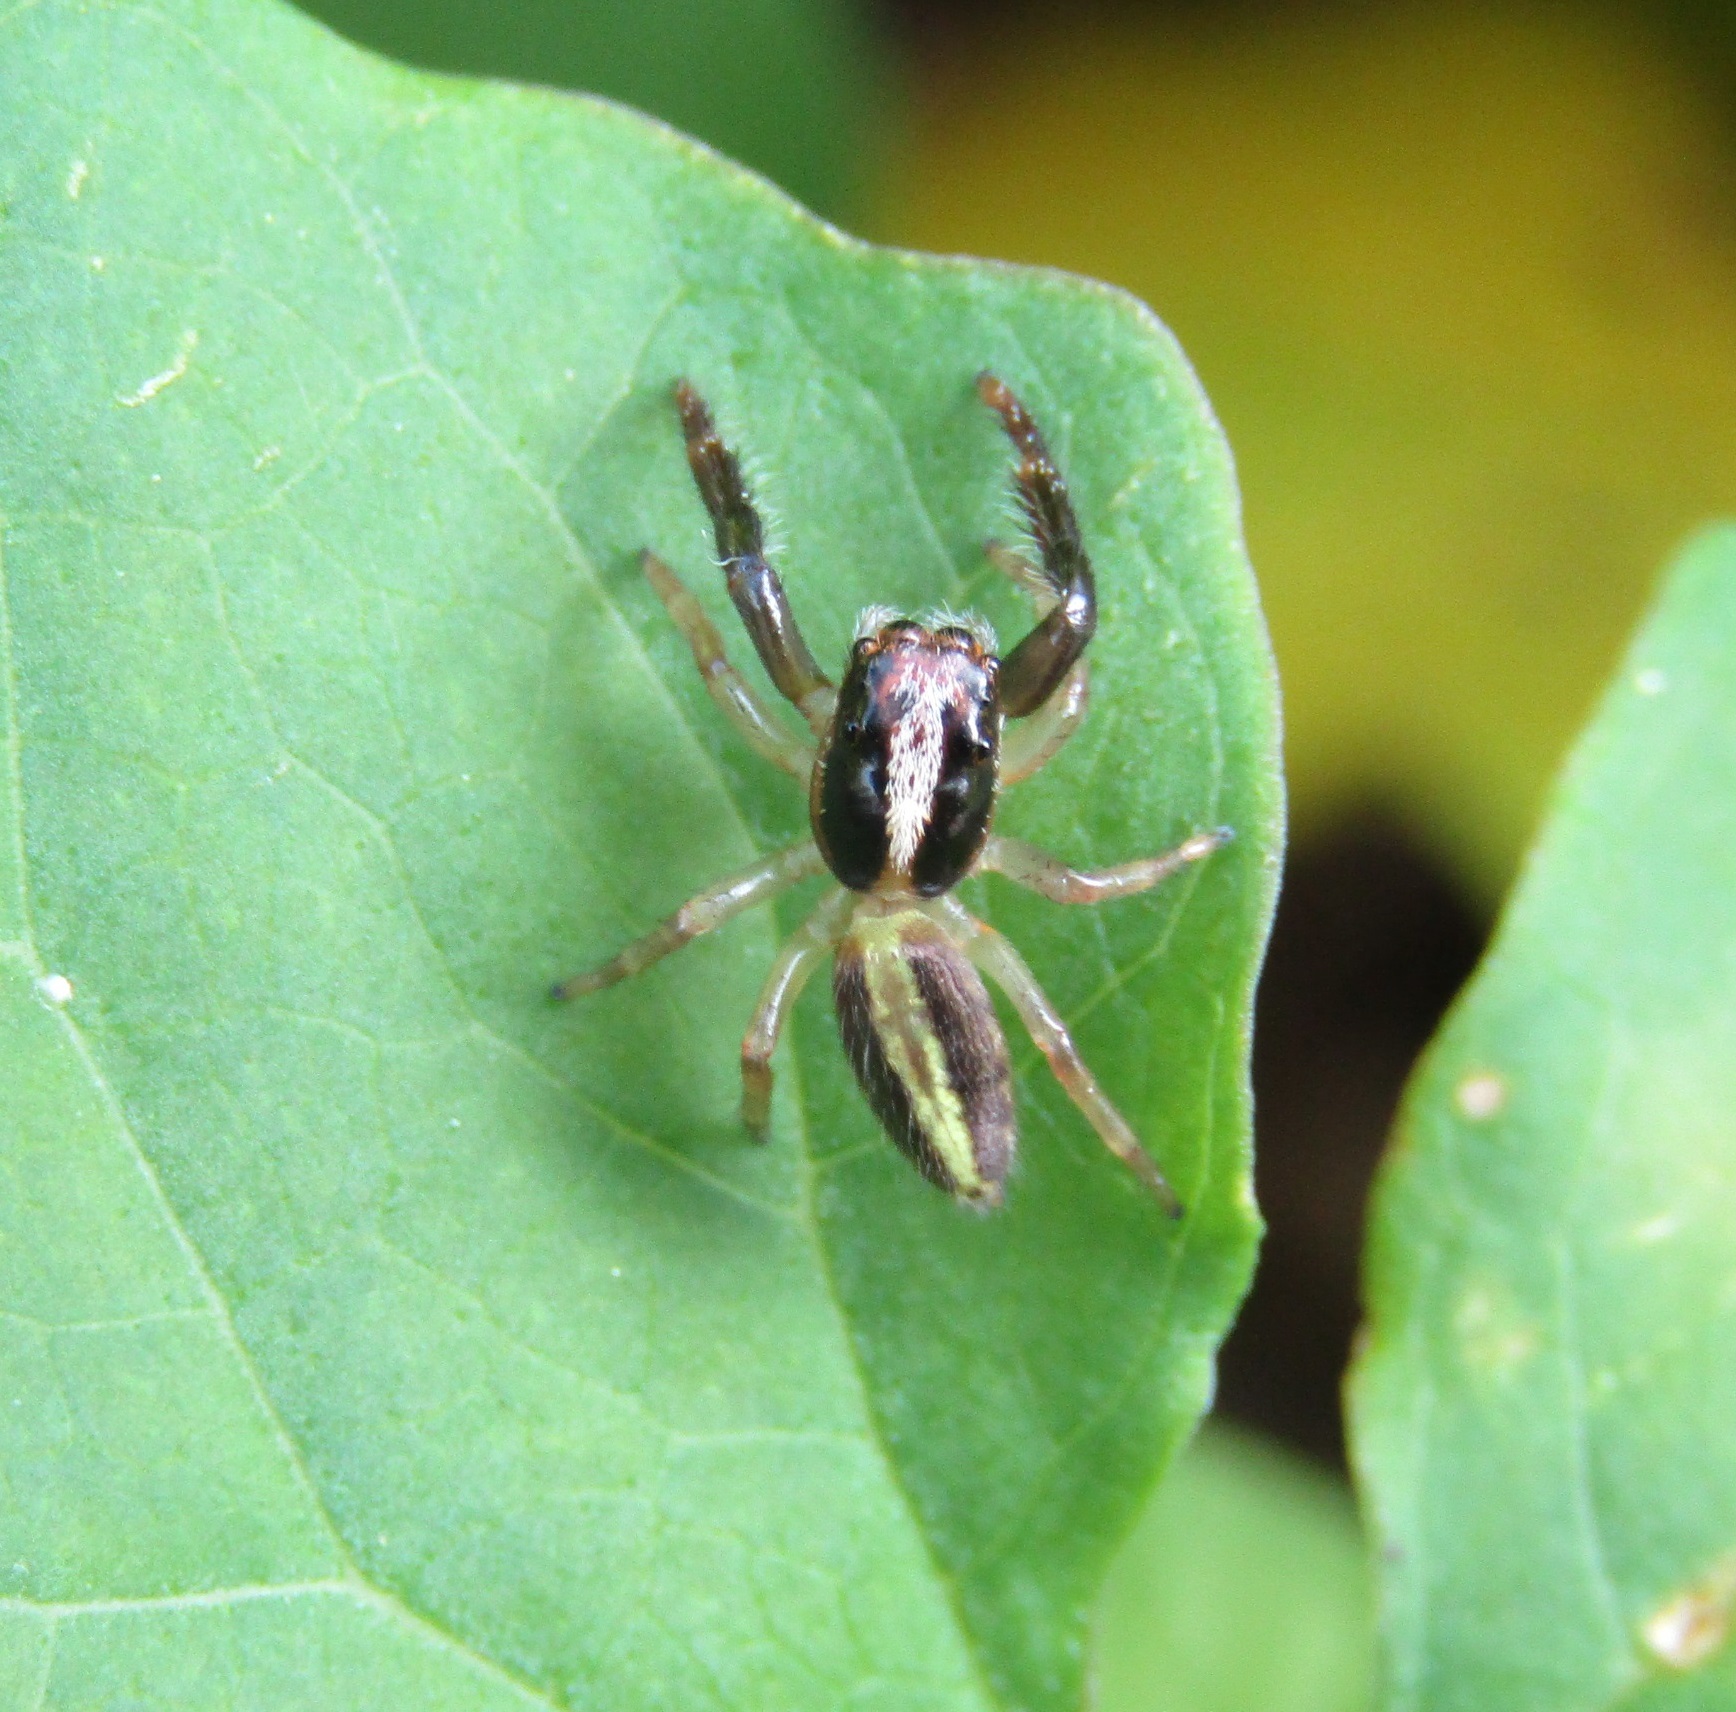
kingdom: Animalia
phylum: Arthropoda
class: Arachnida
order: Araneae
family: Salticidae
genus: Trite
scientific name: Trite planiceps
